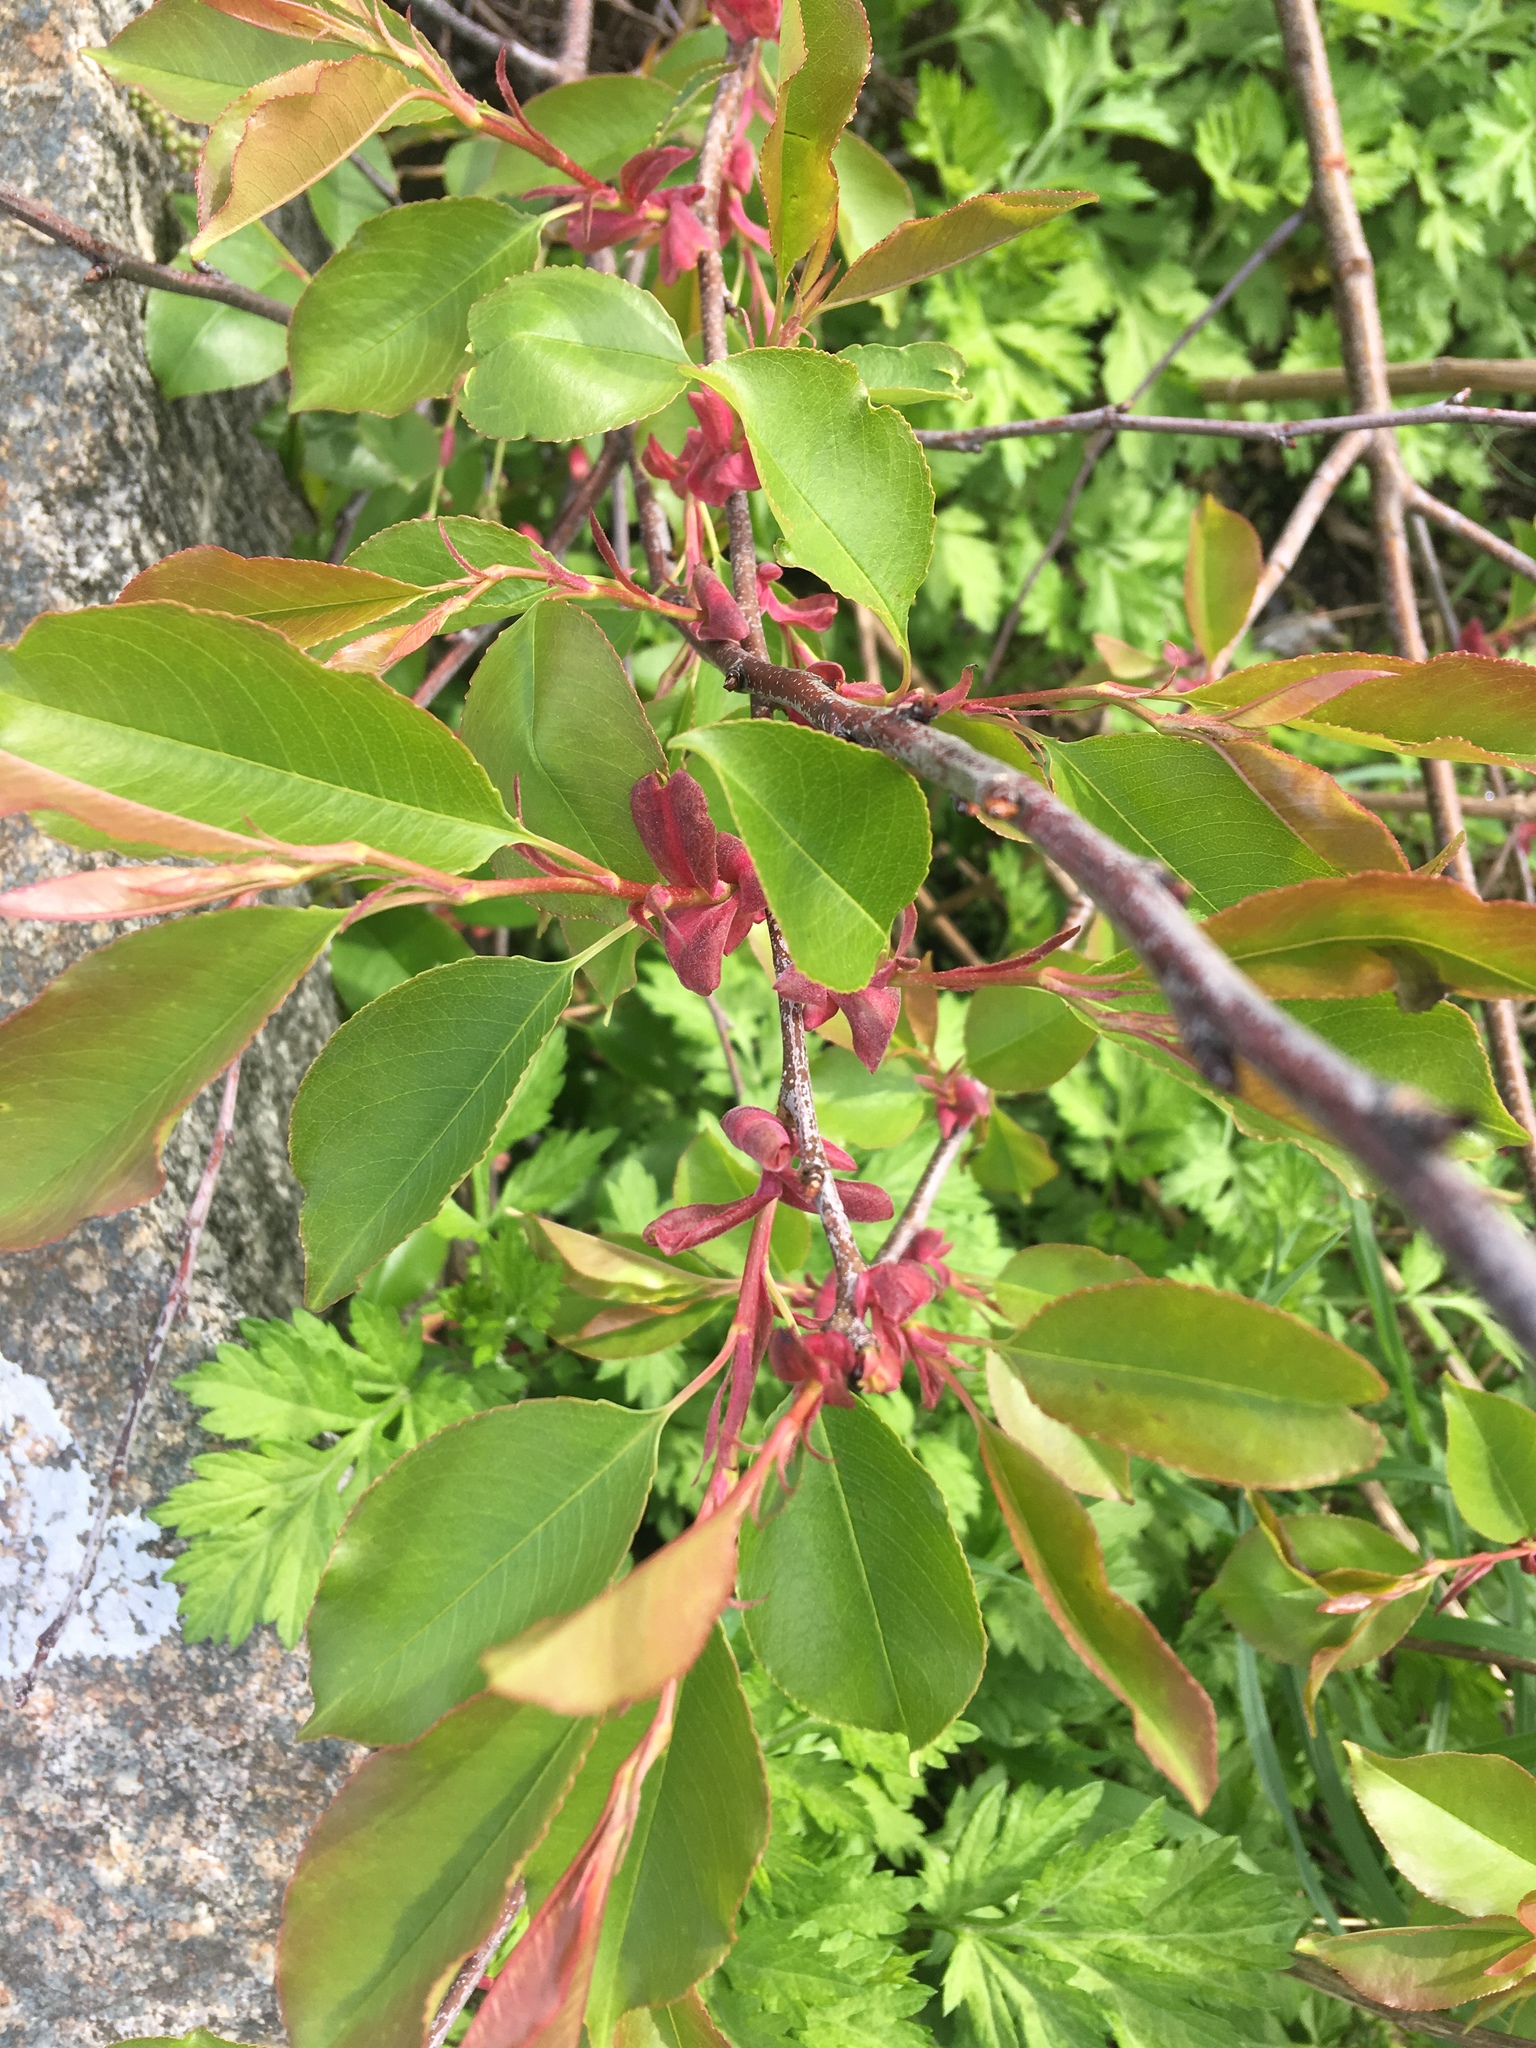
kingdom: Plantae
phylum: Tracheophyta
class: Magnoliopsida
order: Rosales
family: Rosaceae
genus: Prunus
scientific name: Prunus serotina
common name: Black cherry
